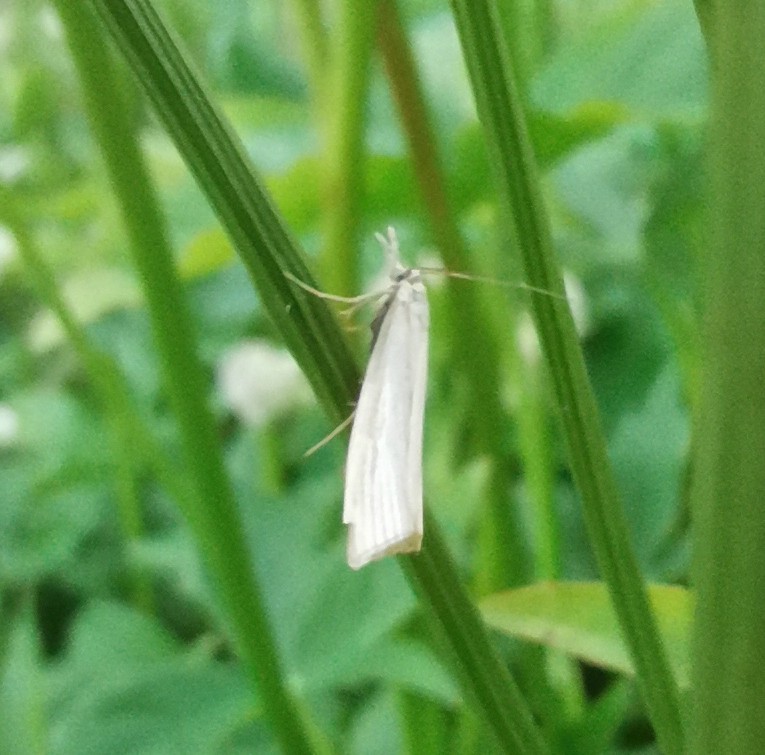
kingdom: Animalia
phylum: Arthropoda
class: Insecta
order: Lepidoptera
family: Crambidae
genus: Crambus
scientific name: Crambus perlellus
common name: Yellow satin veneer
